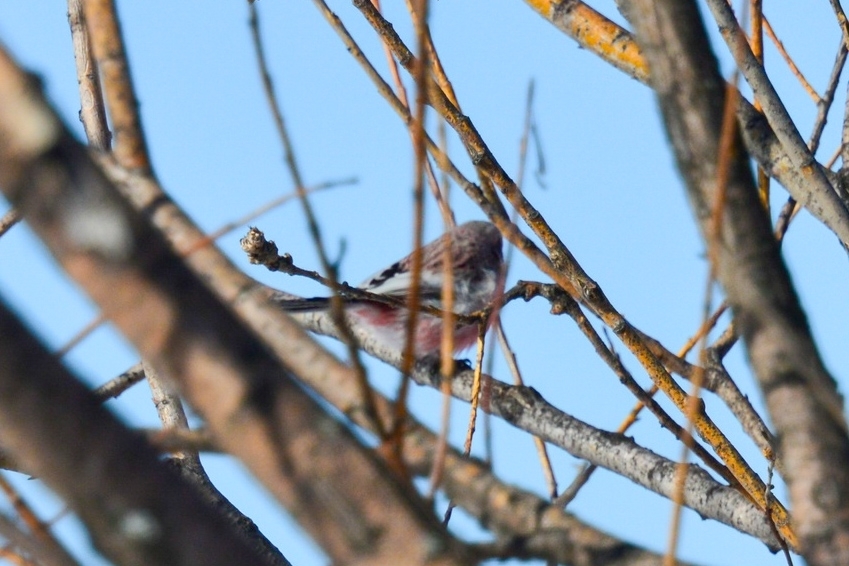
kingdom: Animalia
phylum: Chordata
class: Aves
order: Passeriformes
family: Fringillidae
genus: Carpodacus
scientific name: Carpodacus sibiricus
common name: Long-tailed rosefinch
